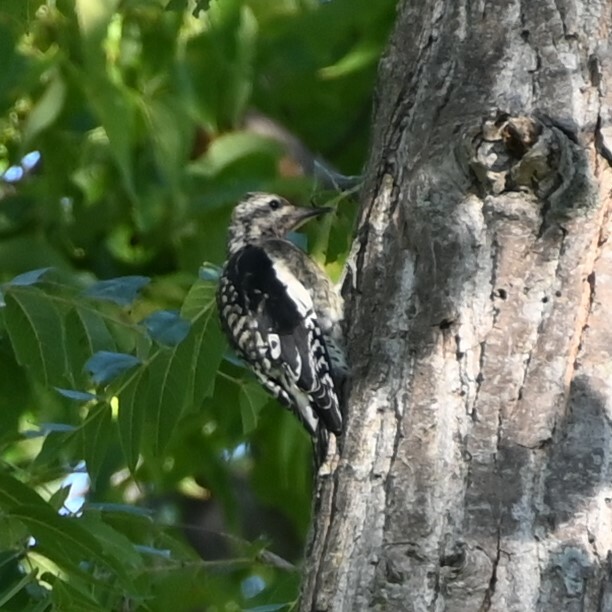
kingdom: Animalia
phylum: Chordata
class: Aves
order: Piciformes
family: Picidae
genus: Sphyrapicus
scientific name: Sphyrapicus varius
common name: Yellow-bellied sapsucker
